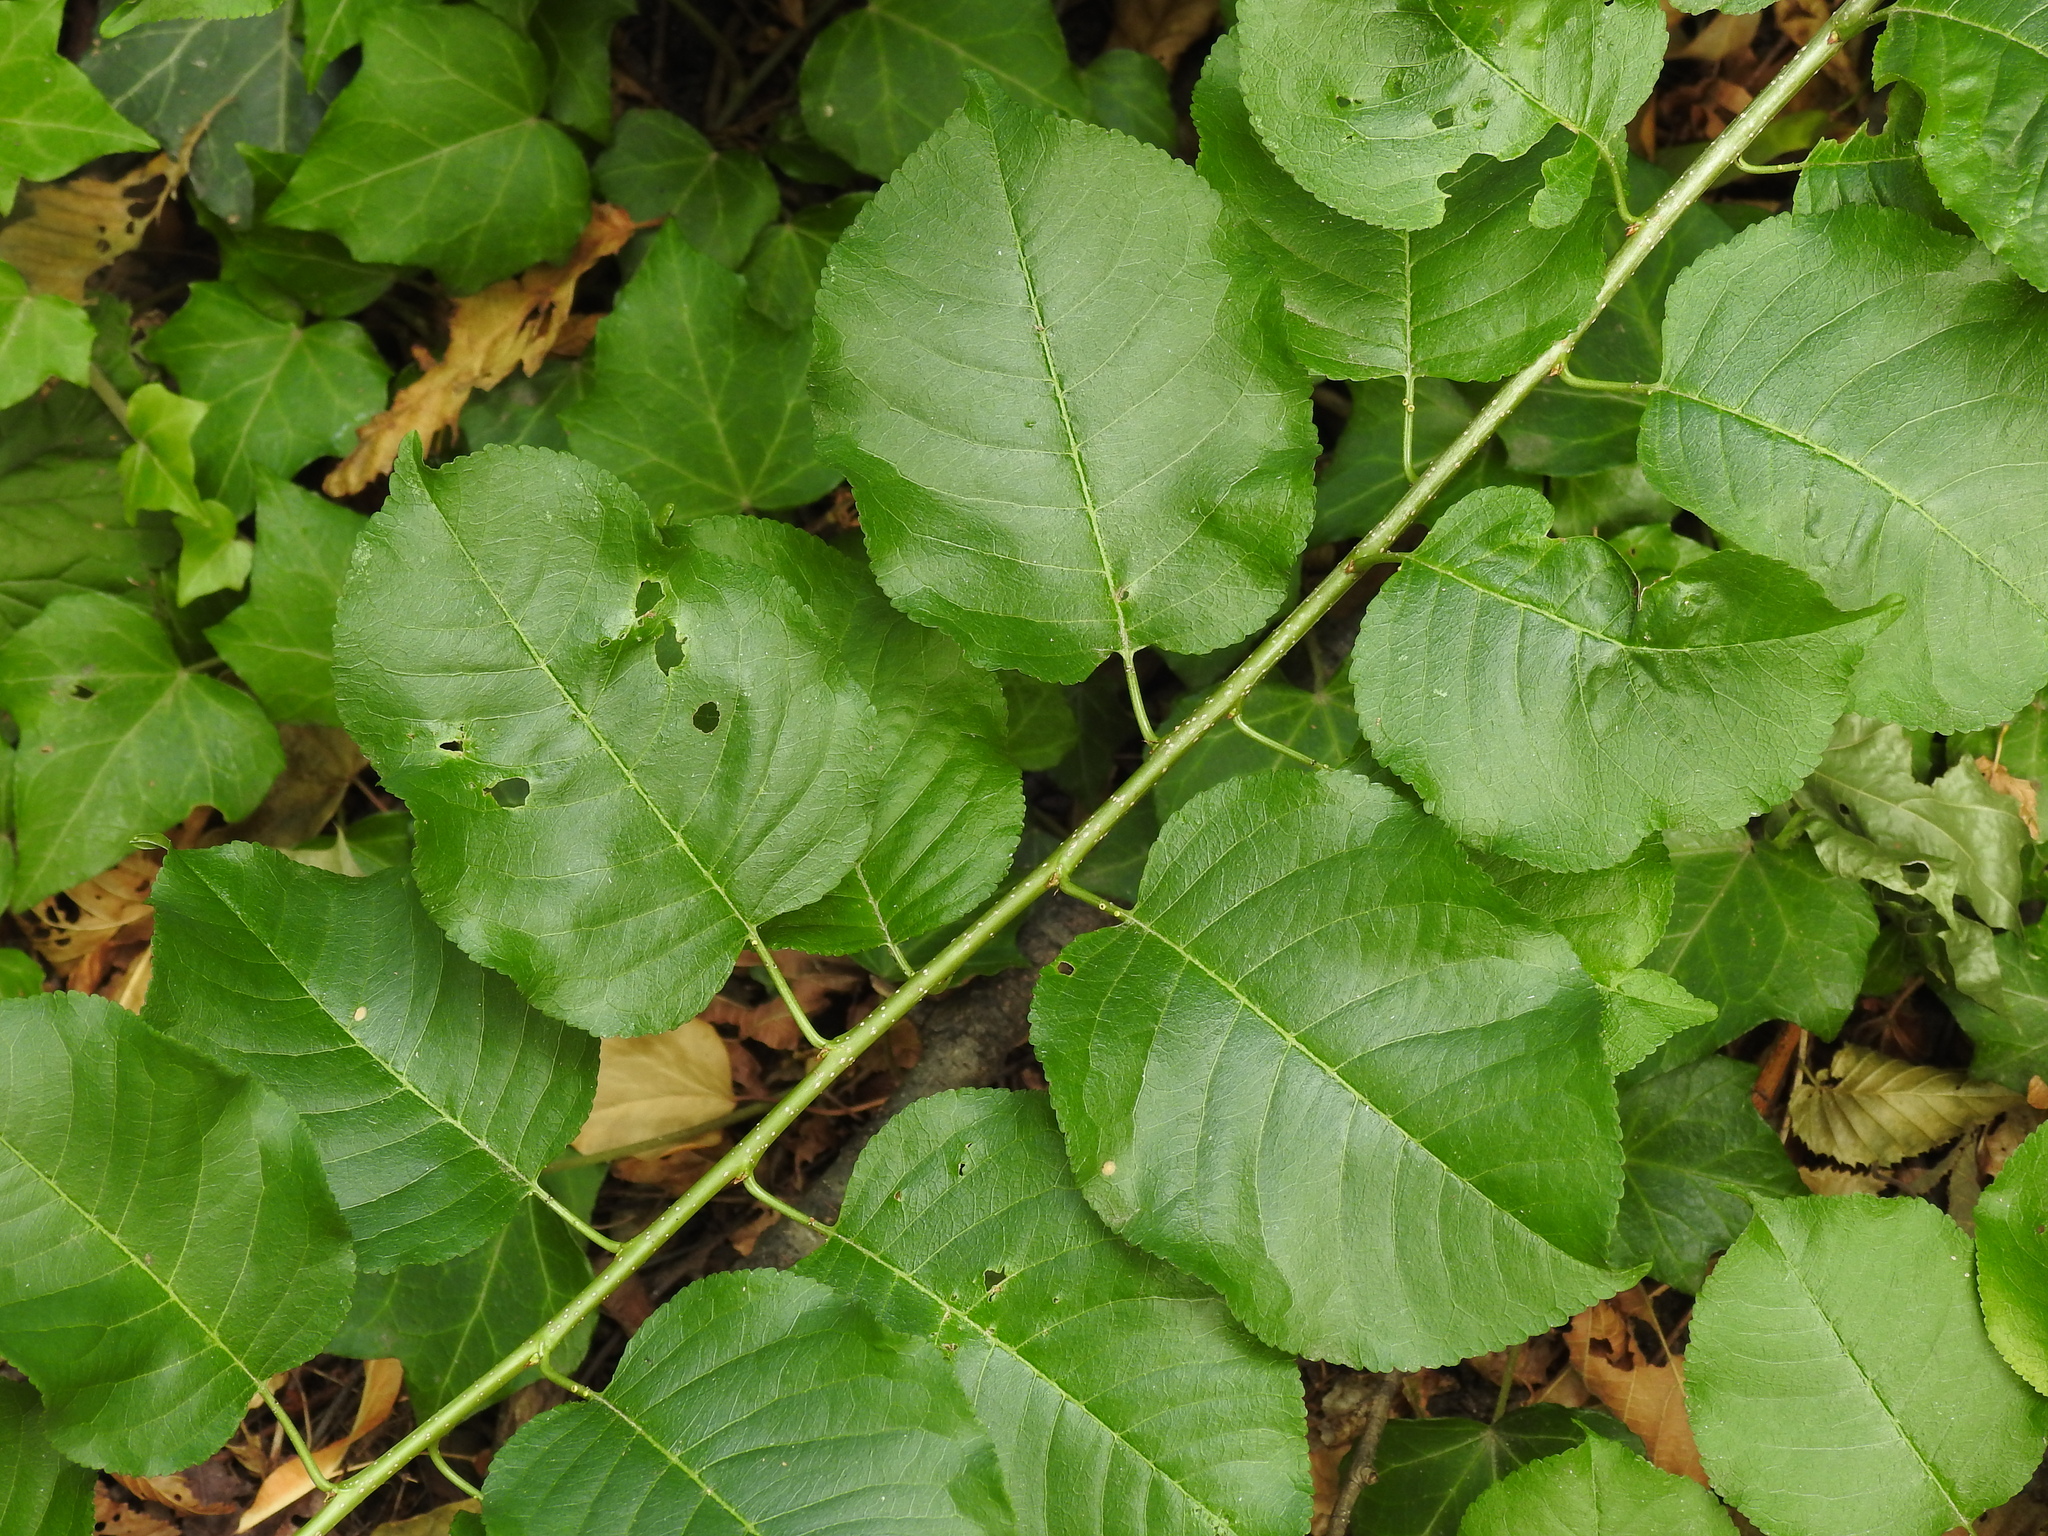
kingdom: Plantae
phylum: Tracheophyta
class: Magnoliopsida
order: Rosales
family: Rosaceae
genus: Prunus
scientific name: Prunus mahaleb
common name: Mahaleb cherry
